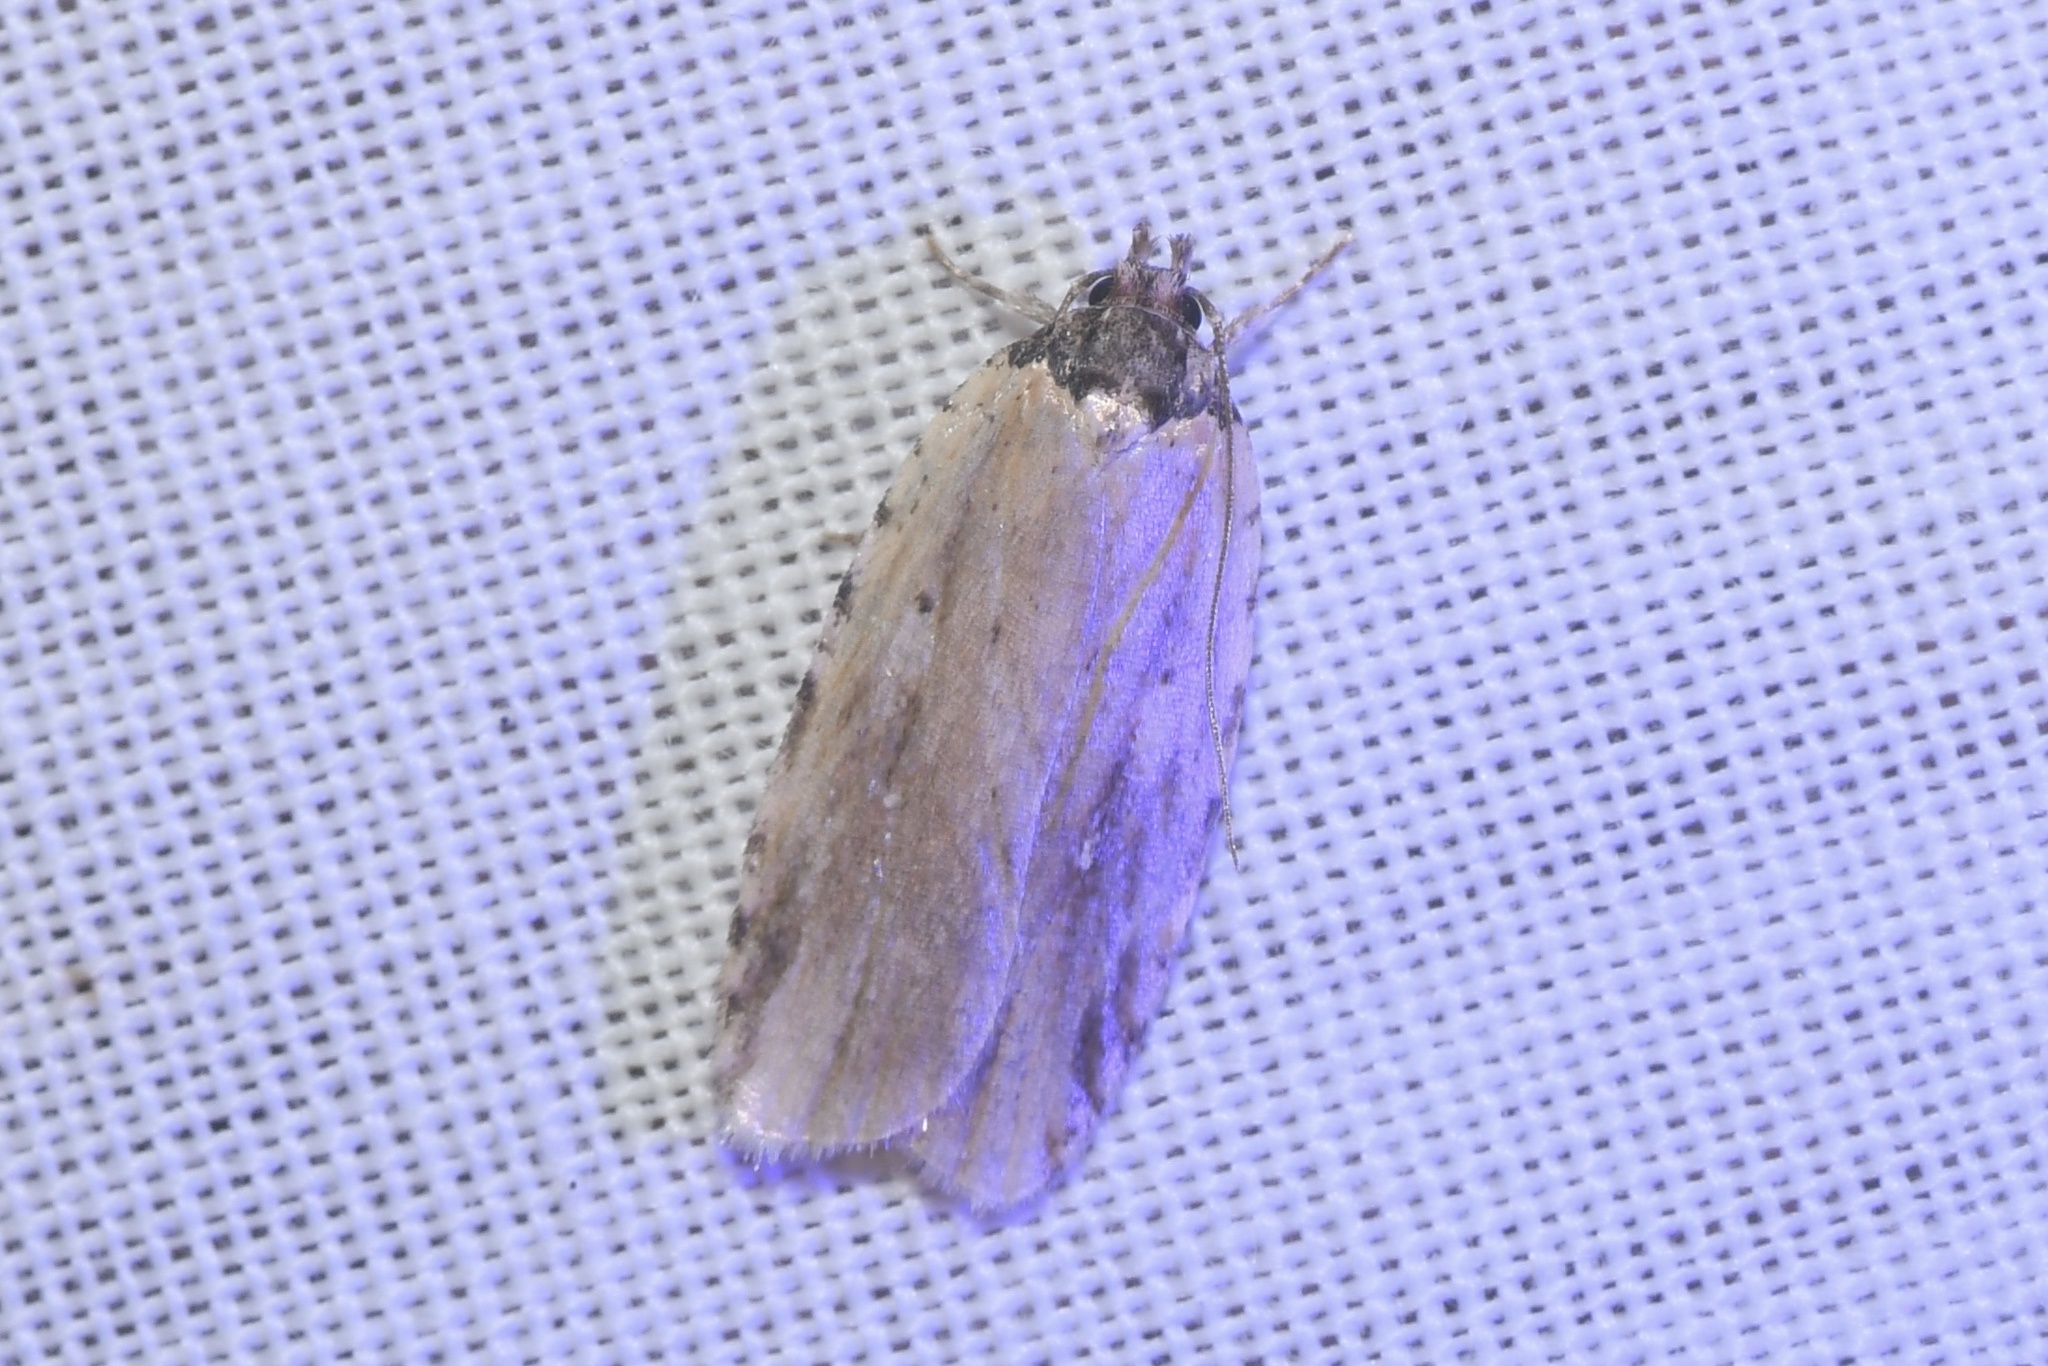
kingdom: Animalia
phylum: Arthropoda
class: Insecta
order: Lepidoptera
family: Depressariidae
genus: Agonopterix
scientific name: Agonopterix atrodorsella
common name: Beggartick leaffolder
